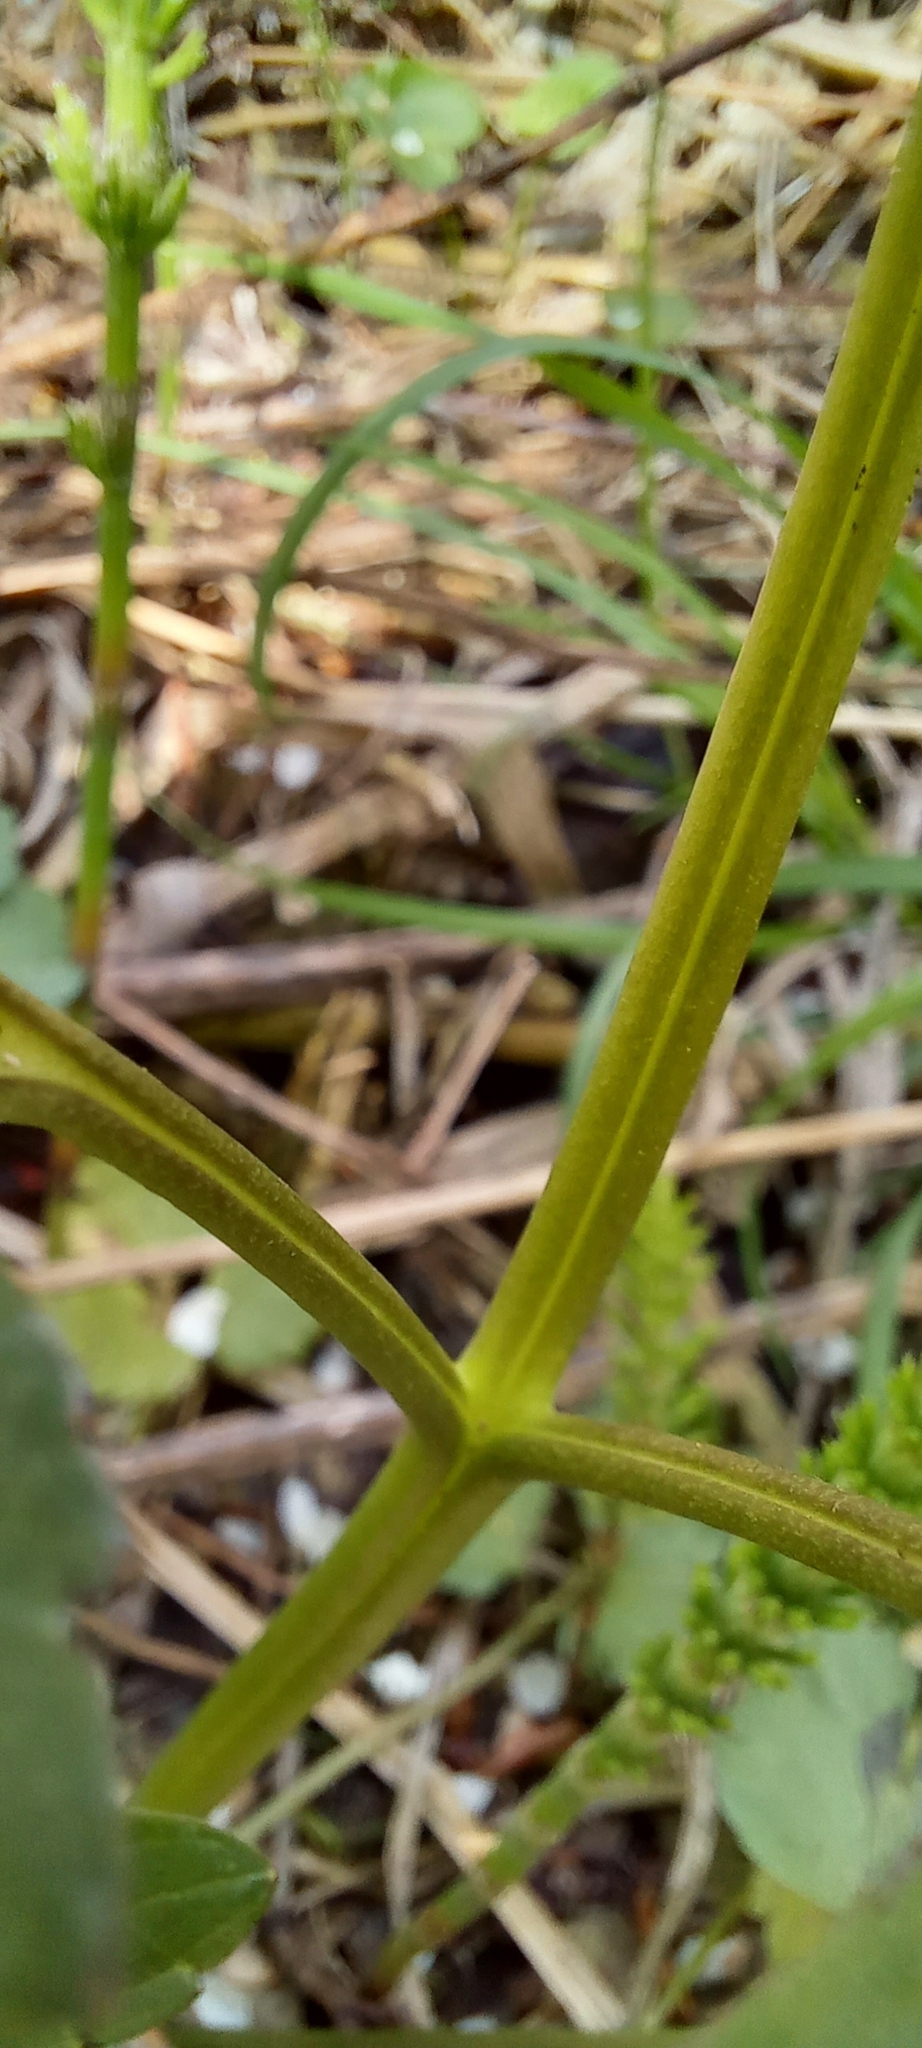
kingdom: Plantae
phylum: Tracheophyta
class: Magnoliopsida
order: Ranunculales
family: Ranunculaceae
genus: Ranunculus
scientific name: Ranunculus repens
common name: Creeping buttercup
